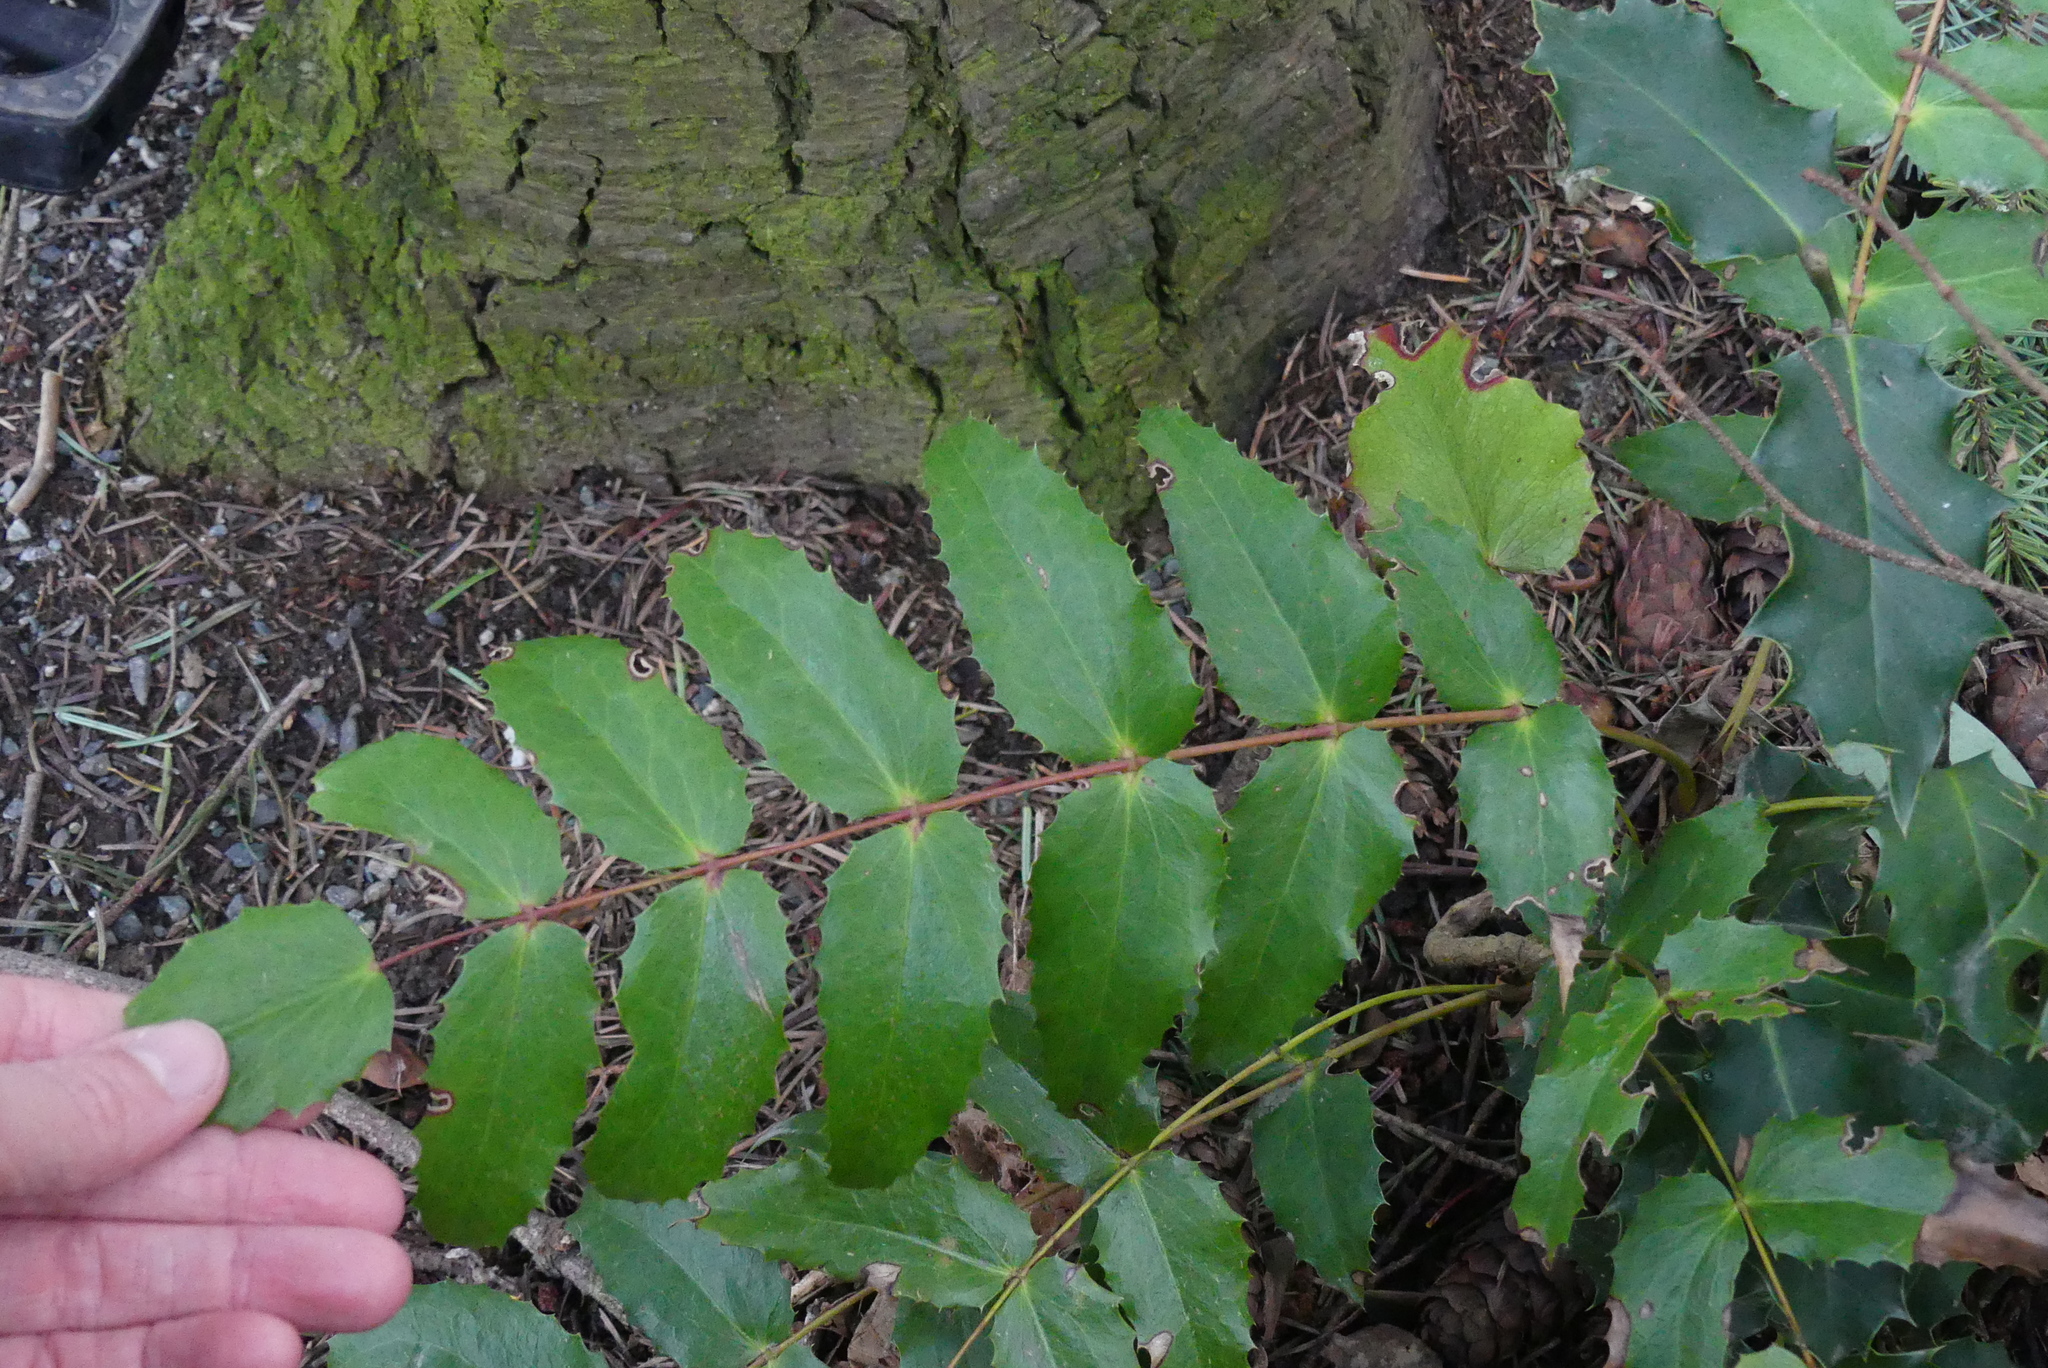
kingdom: Plantae
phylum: Tracheophyta
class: Magnoliopsida
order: Ranunculales
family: Berberidaceae
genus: Mahonia
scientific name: Mahonia nervosa
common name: Cascade oregon-grape
